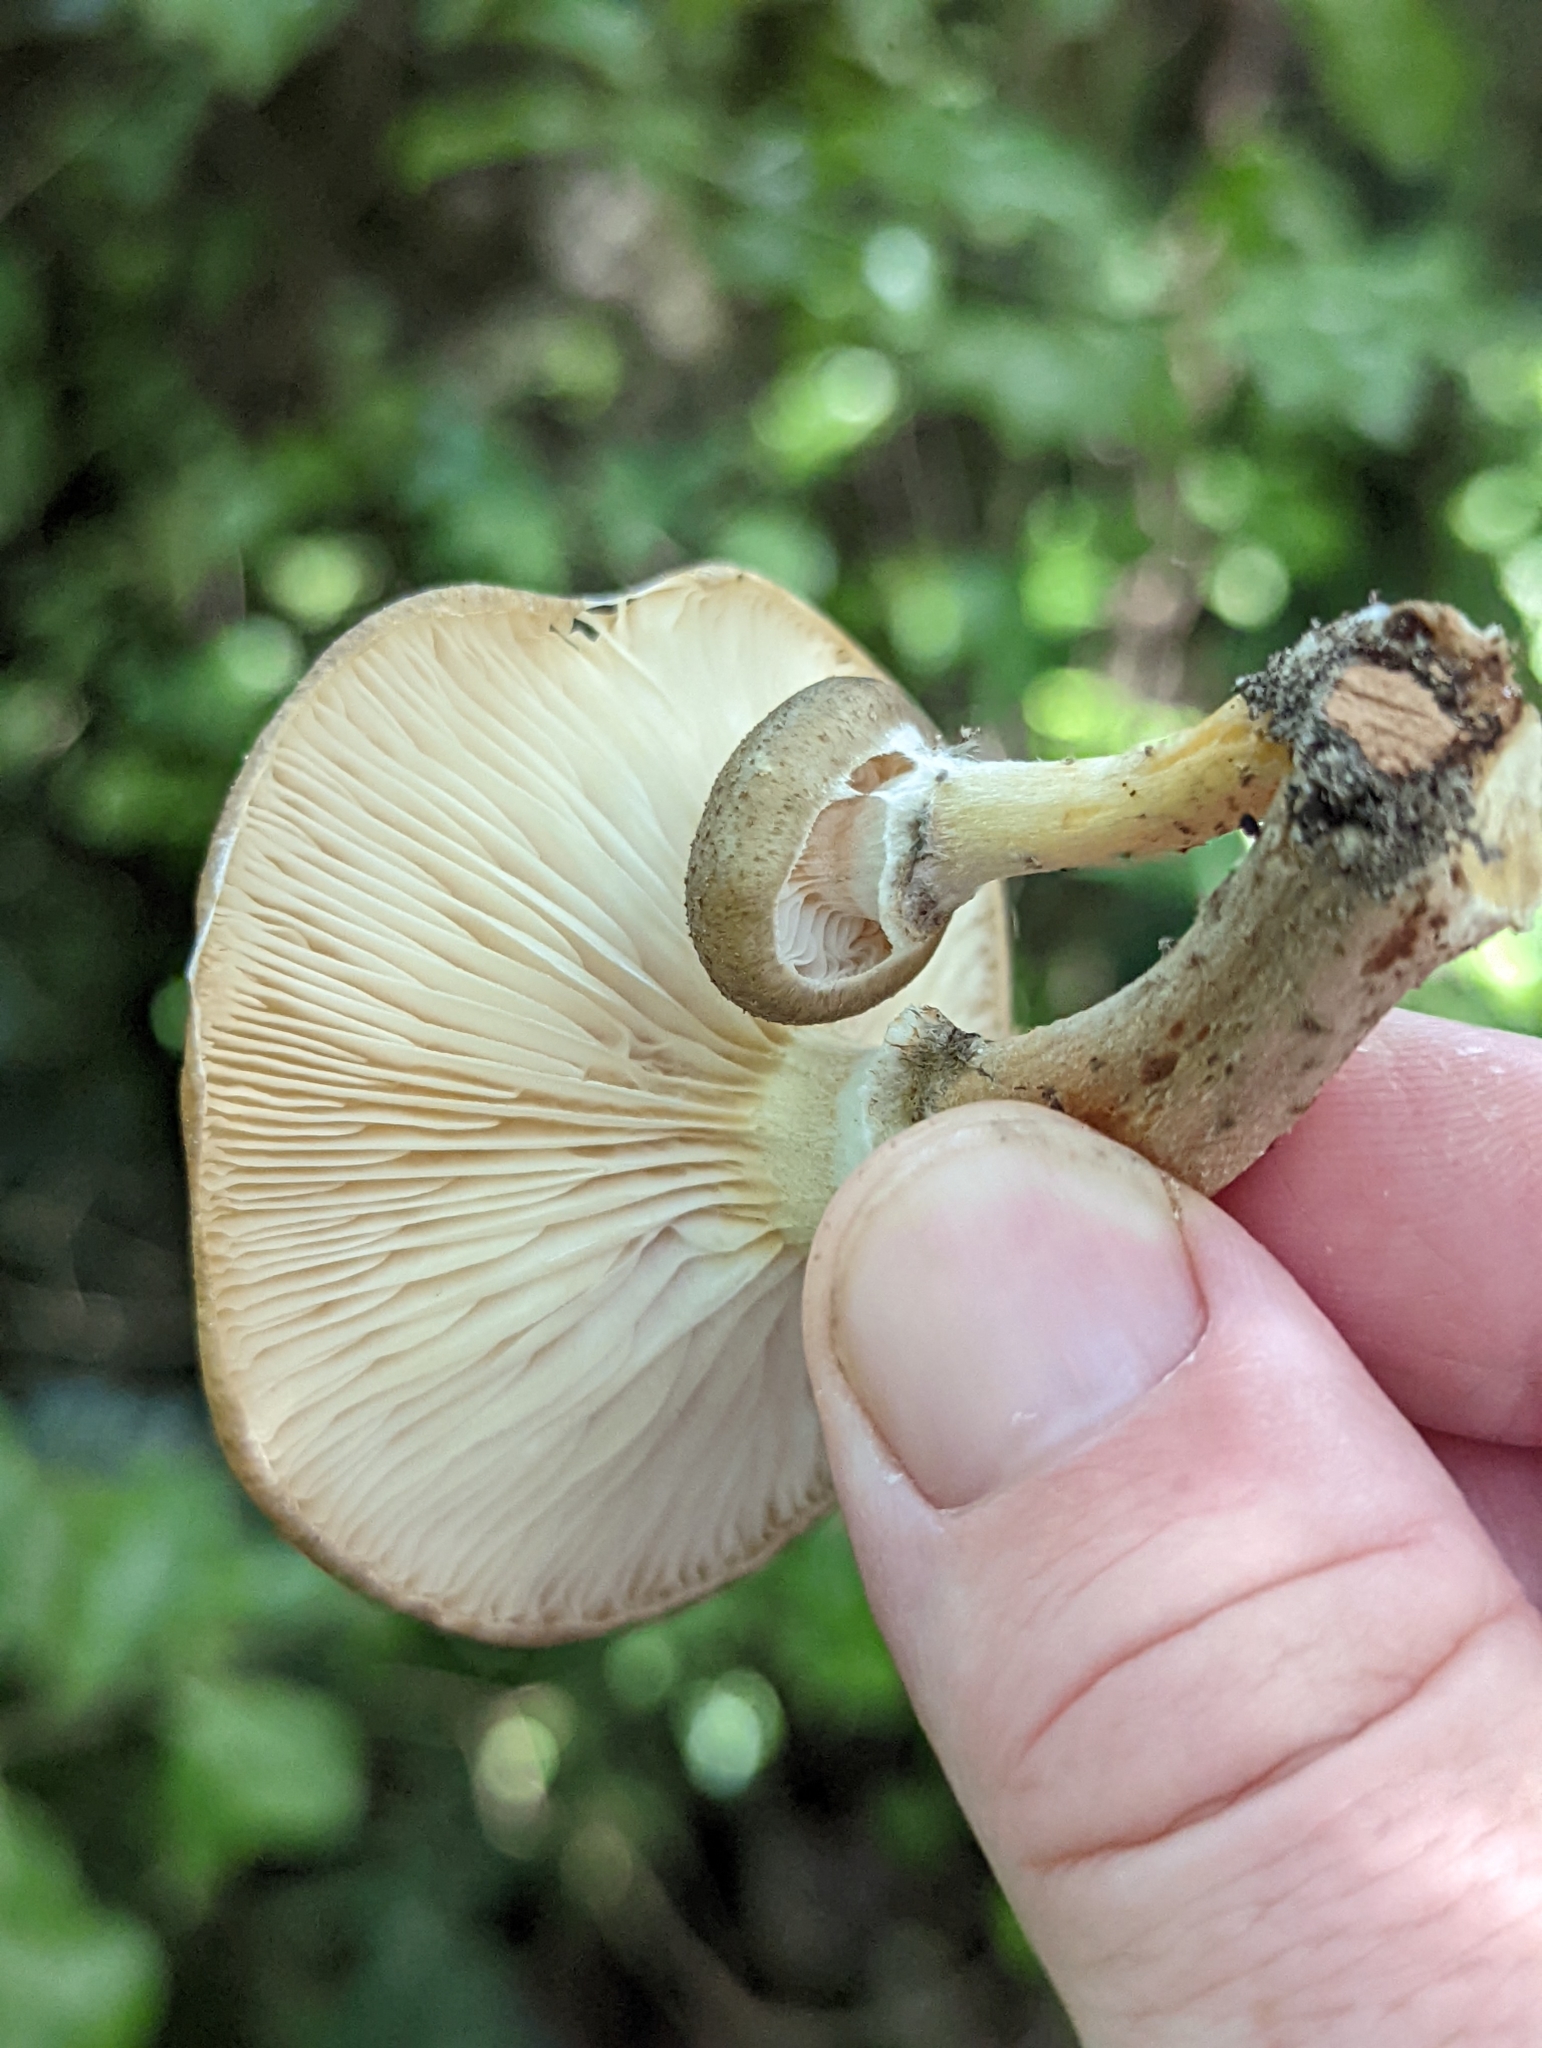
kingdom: Fungi
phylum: Basidiomycota
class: Agaricomycetes
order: Agaricales
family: Physalacriaceae
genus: Armillaria
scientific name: Armillaria novae-zelandiae
